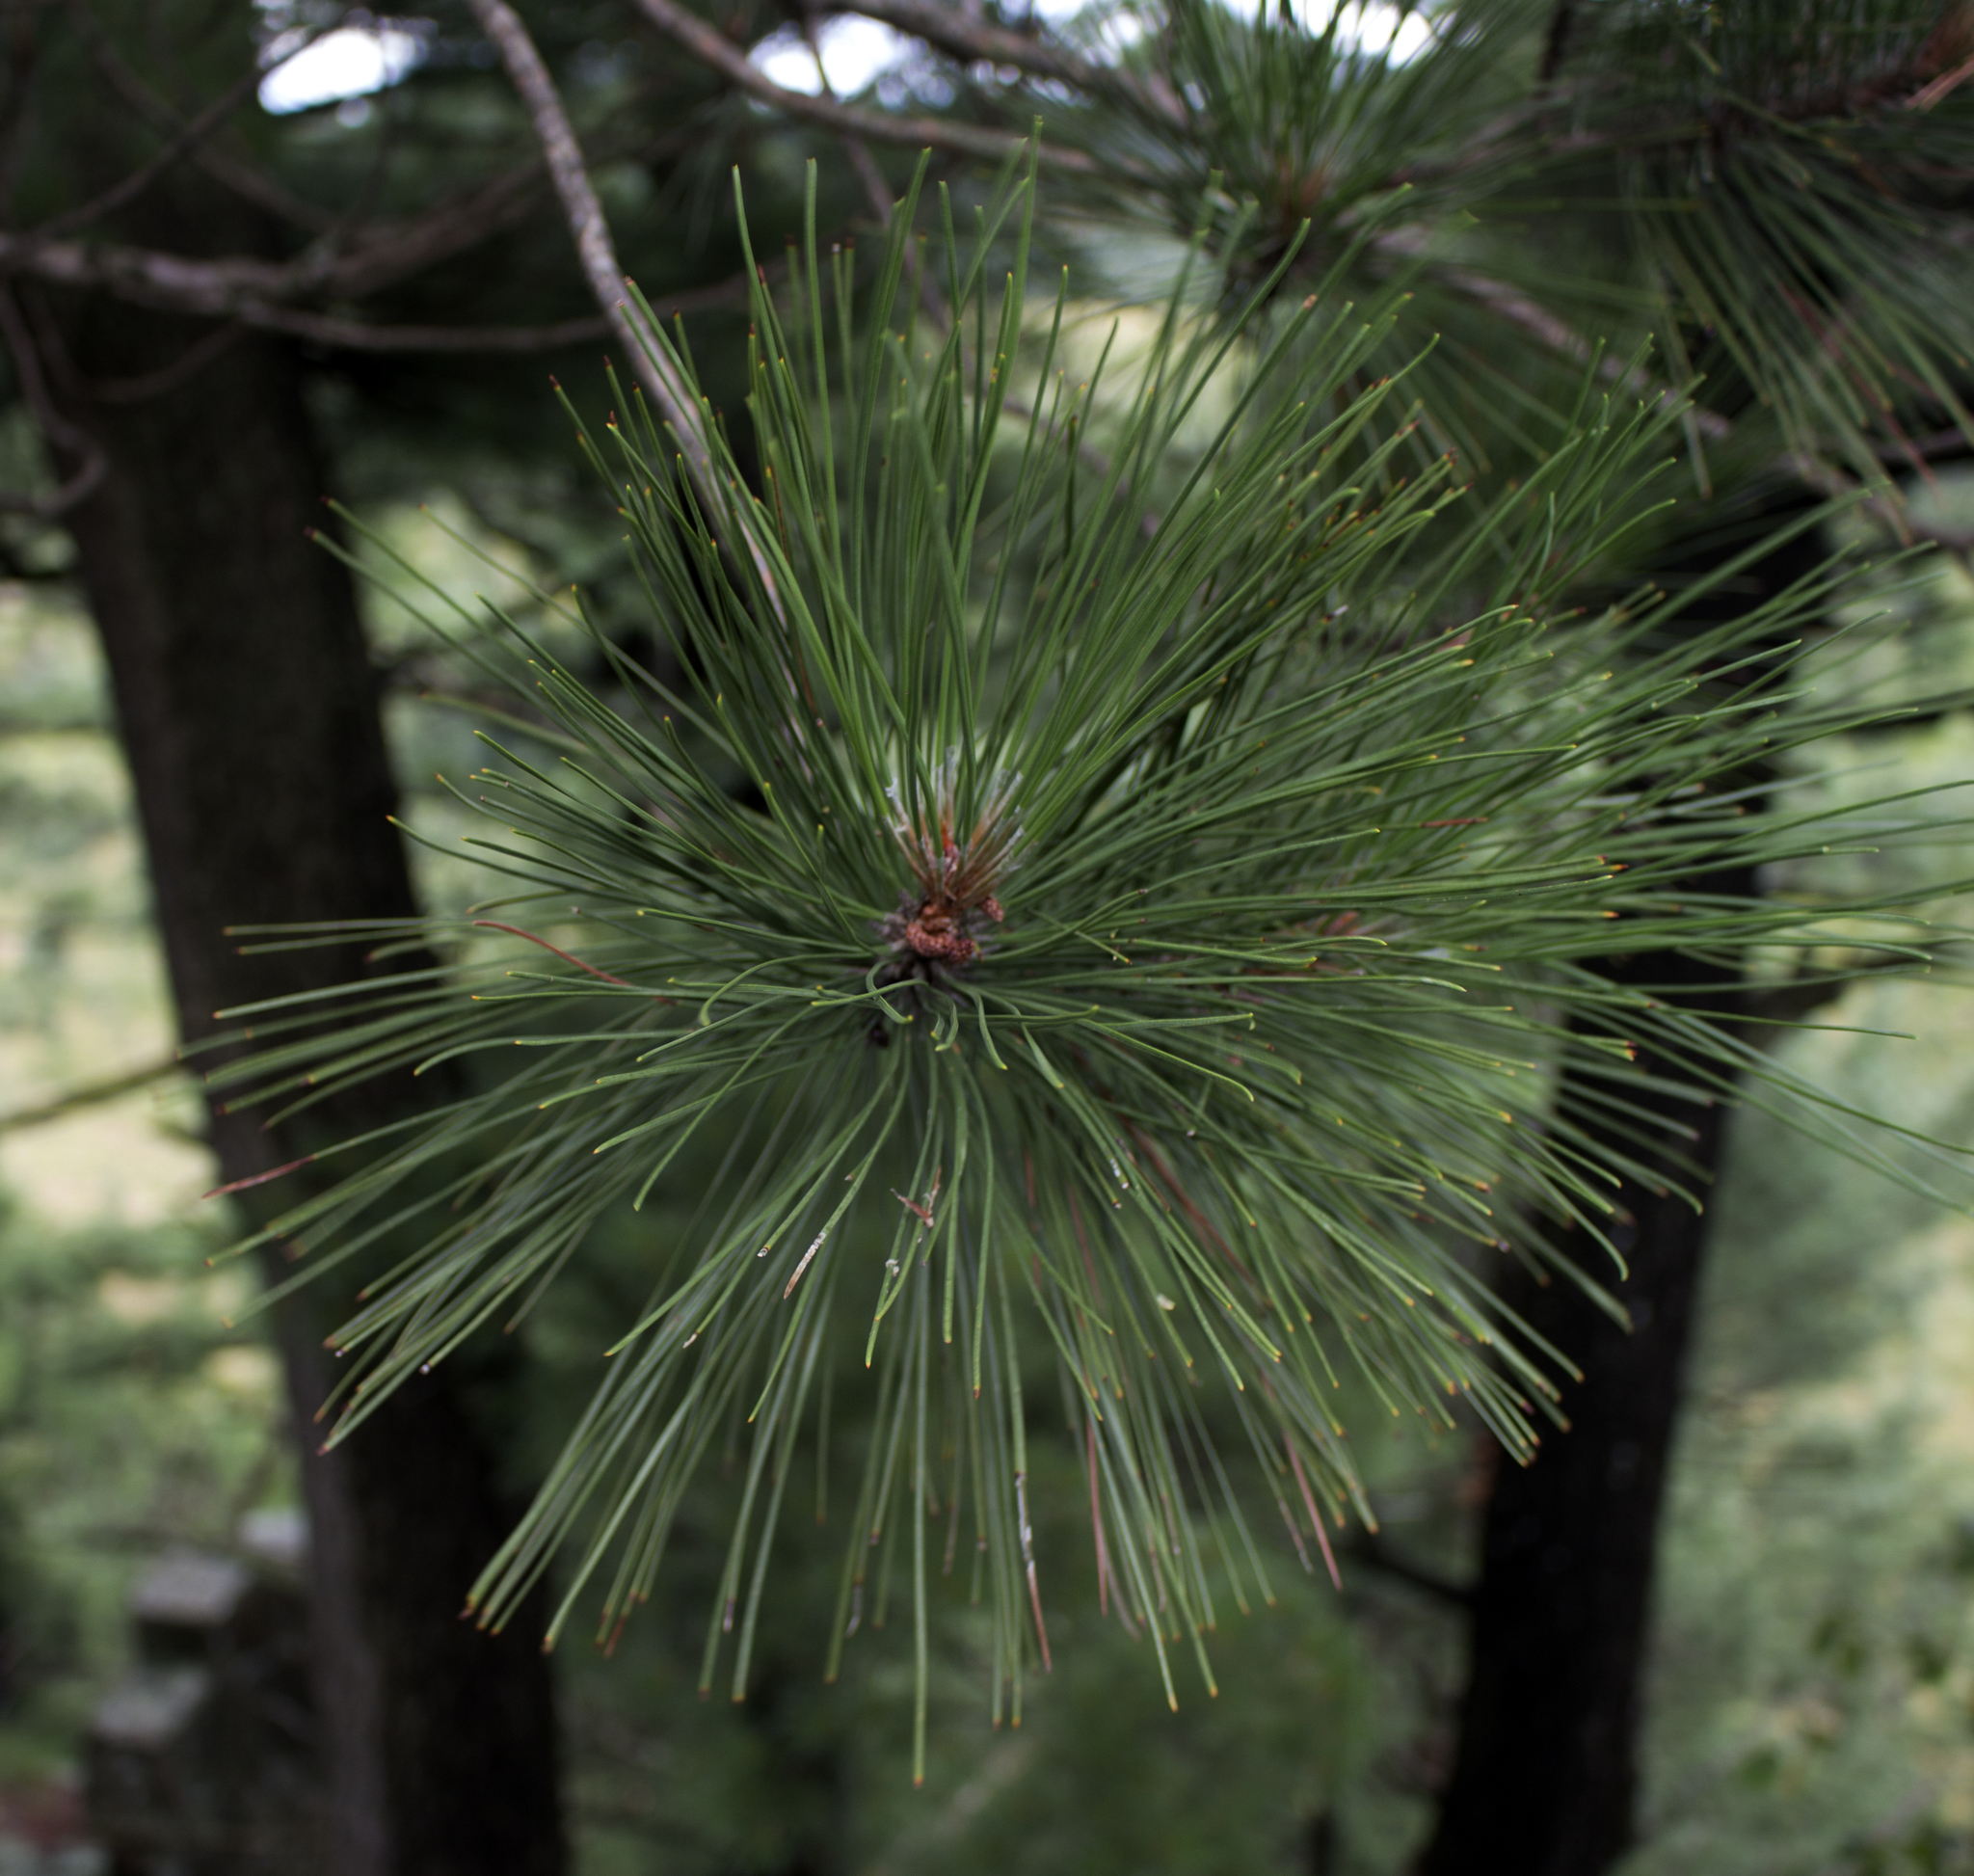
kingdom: Plantae
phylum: Tracheophyta
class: Pinopsida
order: Pinales
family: Pinaceae
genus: Pinus
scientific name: Pinus resinosa
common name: Norway pine
